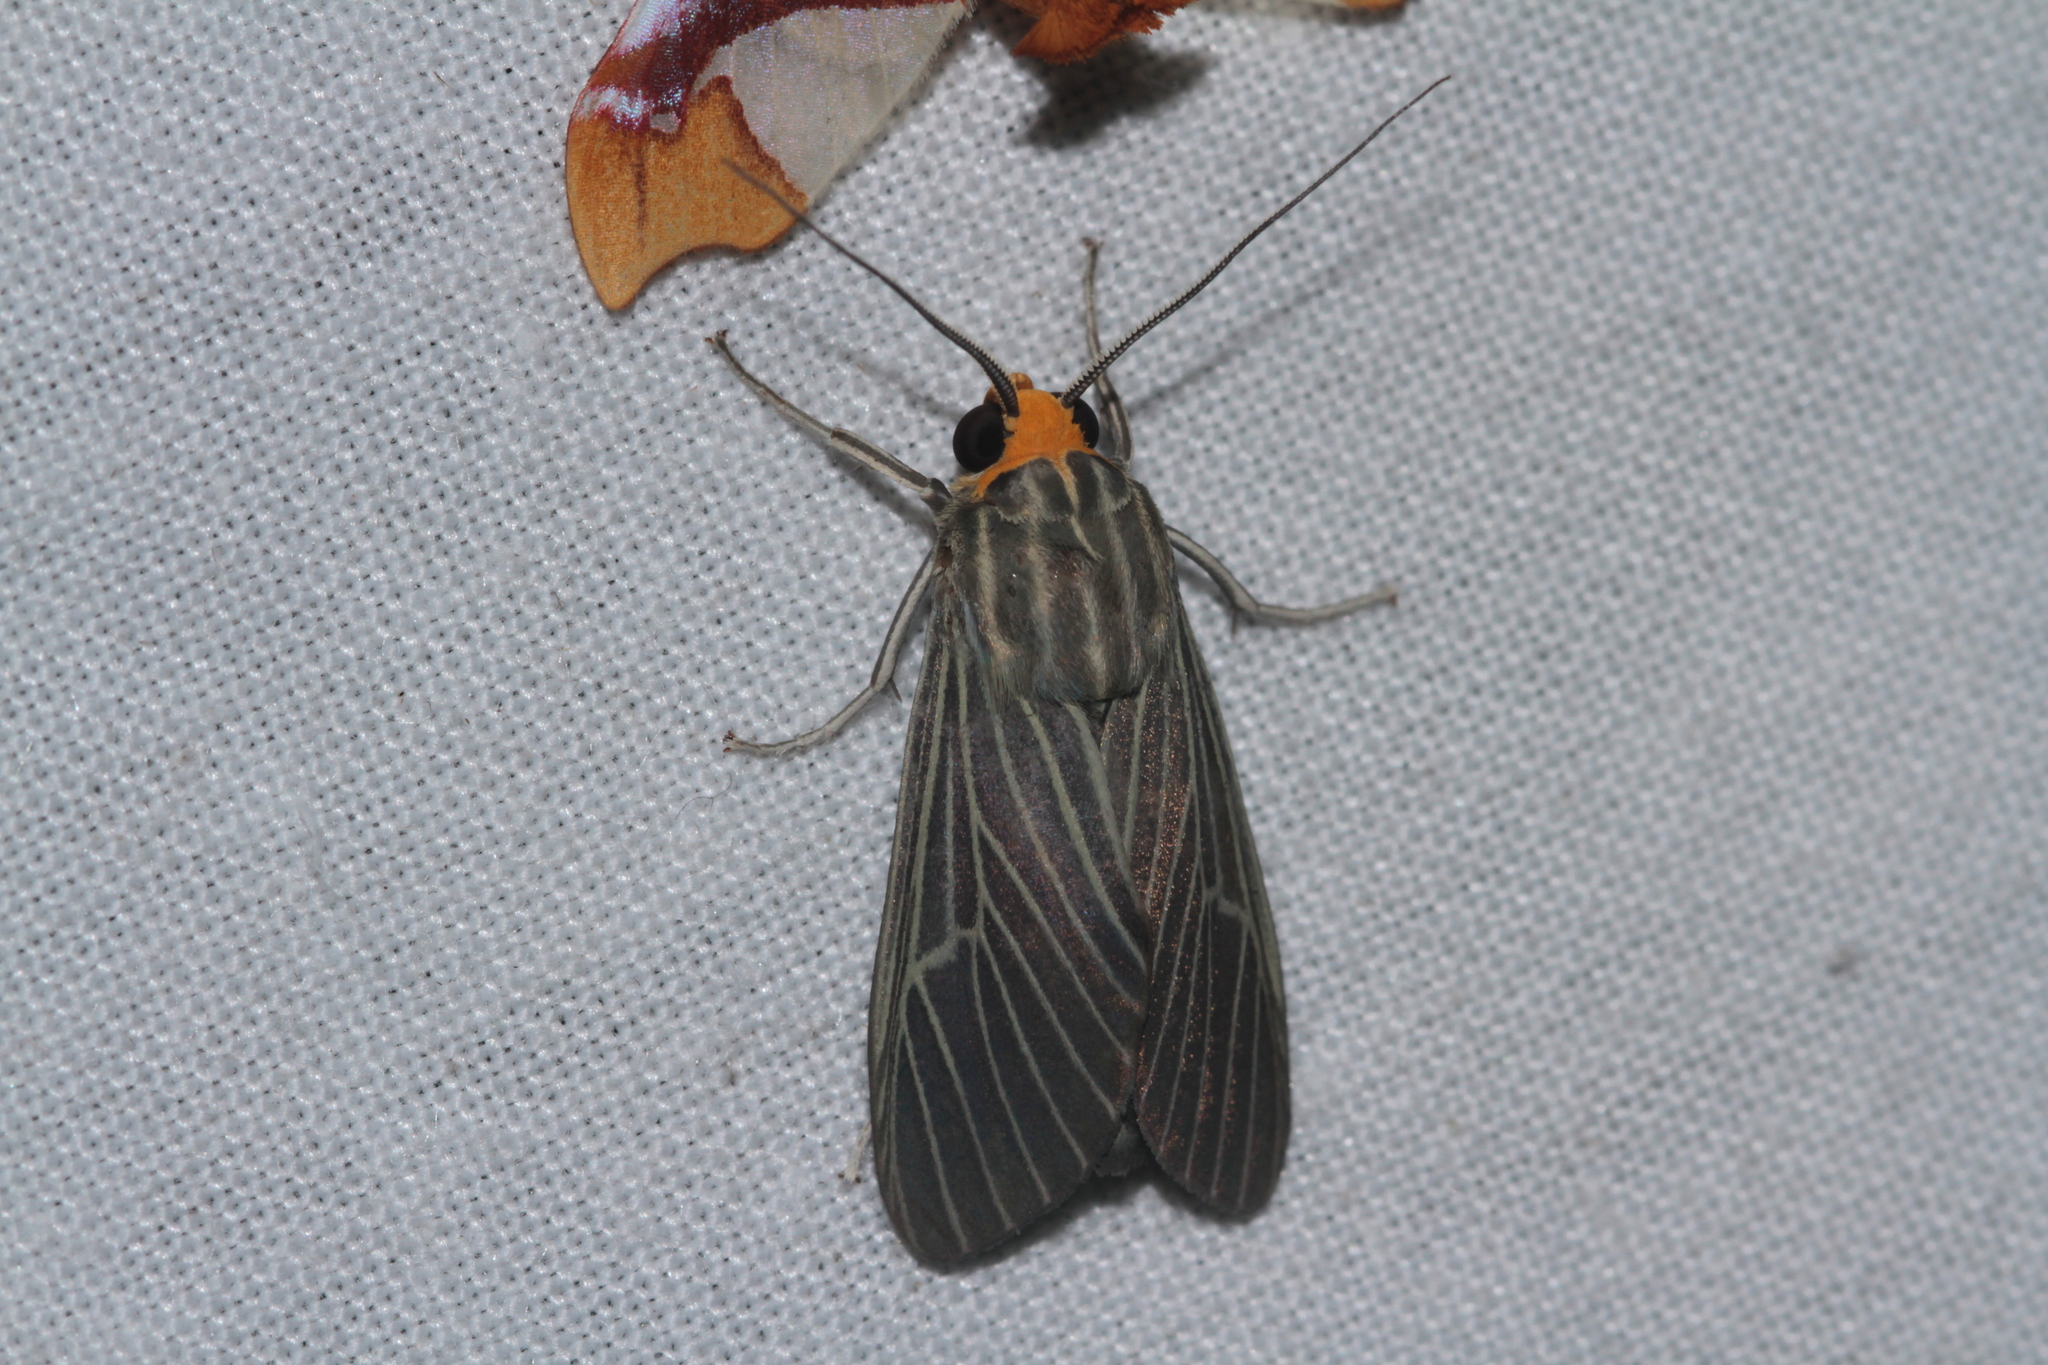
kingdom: Animalia
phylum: Arthropoda
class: Insecta
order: Lepidoptera
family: Erebidae
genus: Apyre
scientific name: Apyre separata
